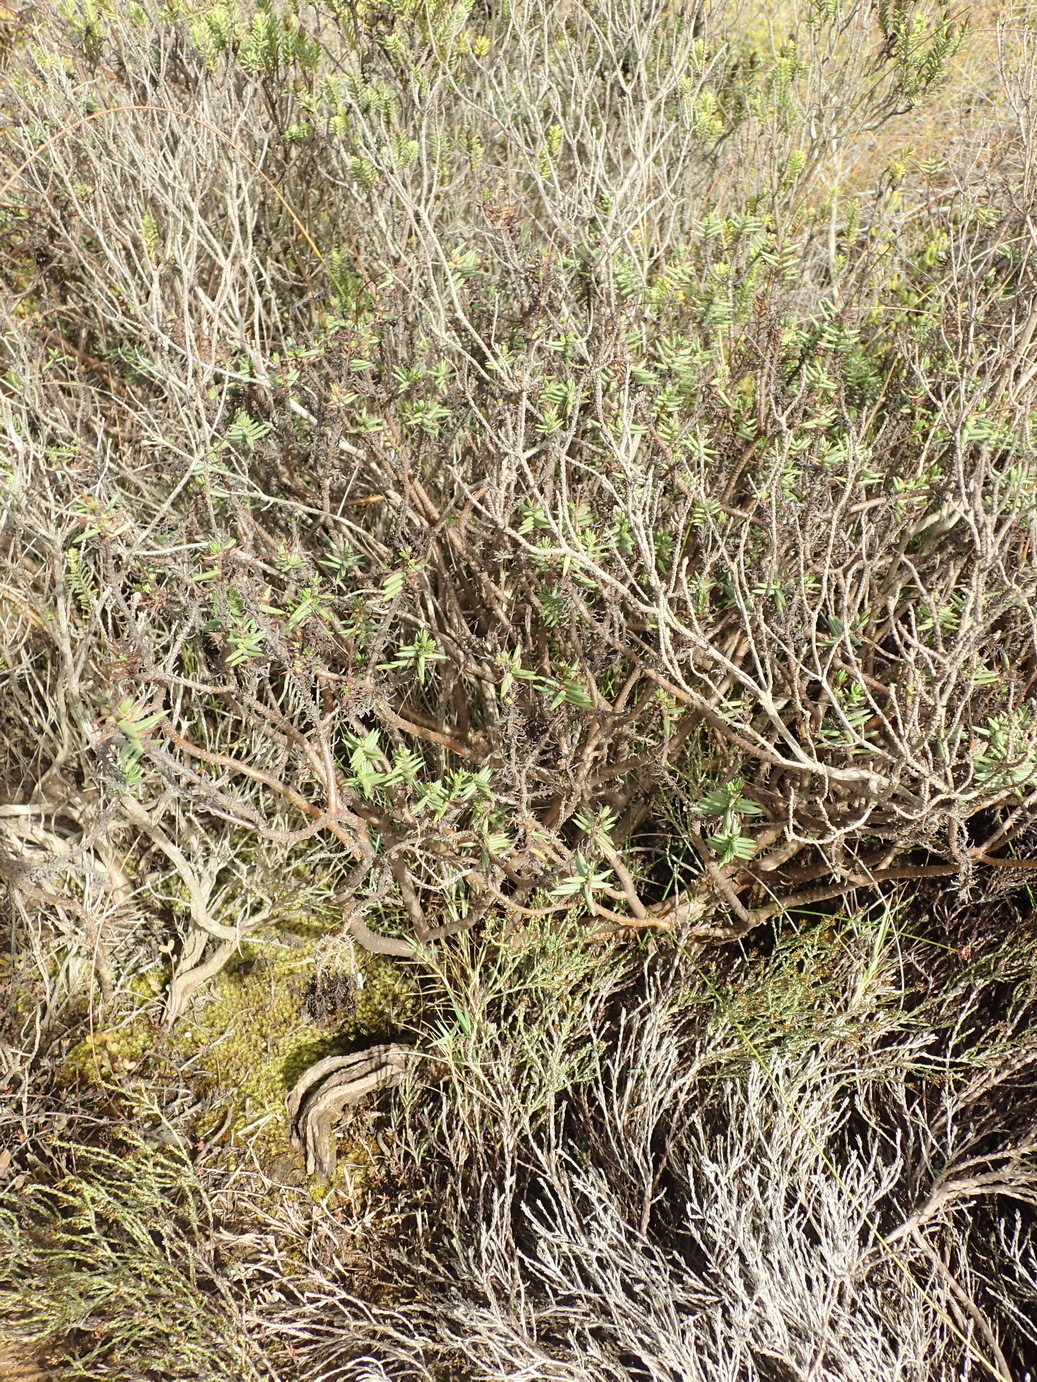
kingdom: Plantae
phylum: Tracheophyta
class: Magnoliopsida
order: Saxifragales
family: Crassulaceae
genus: Crassula
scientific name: Crassula tetragona
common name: Pygmyweed
